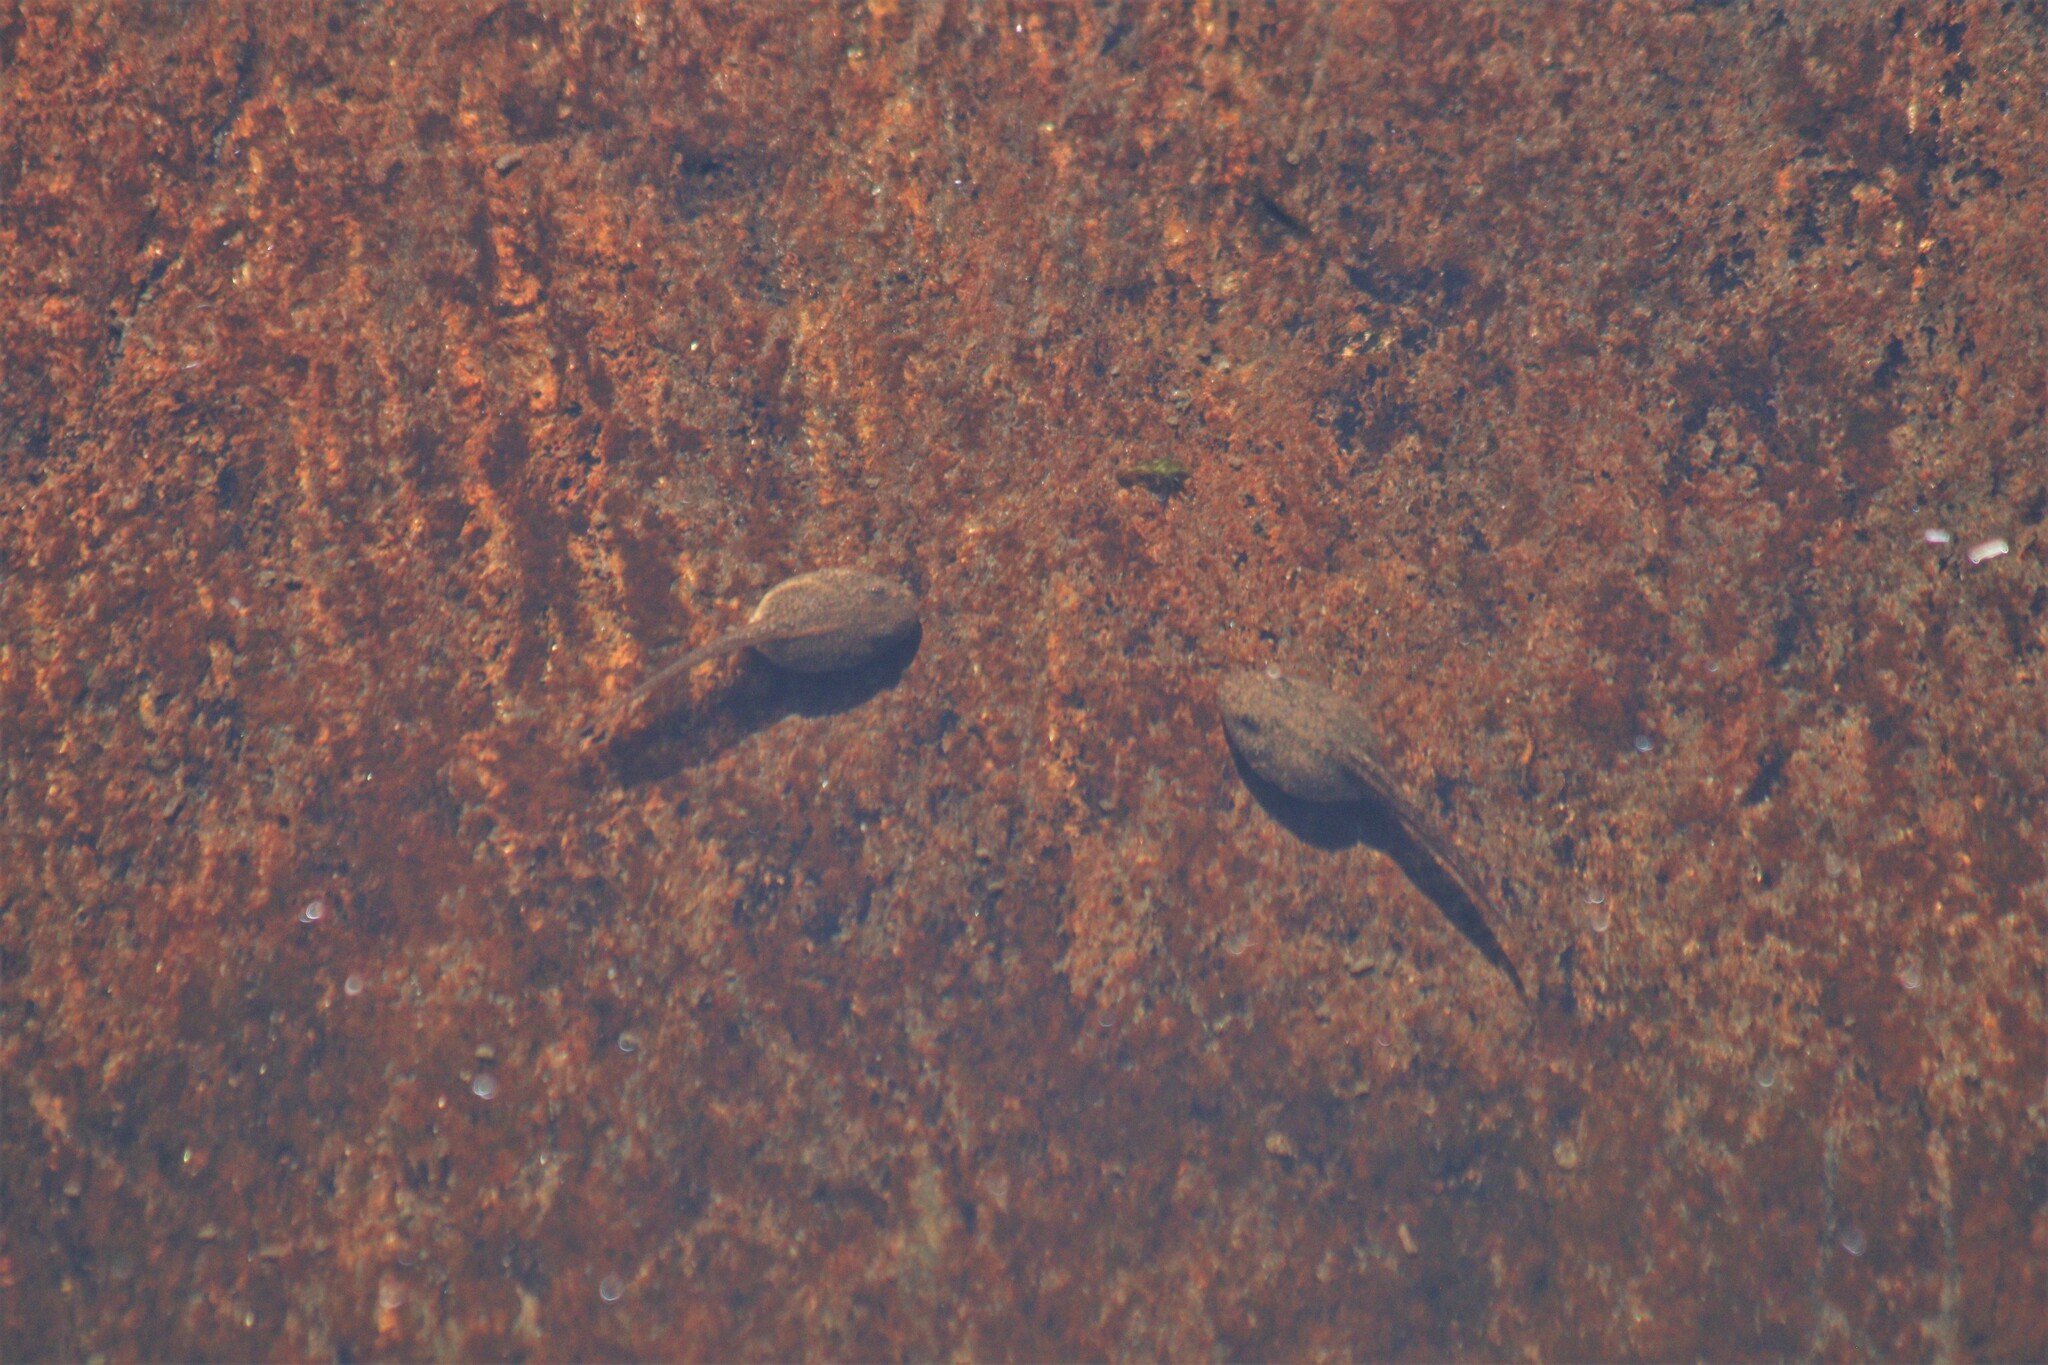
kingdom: Animalia
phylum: Chordata
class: Amphibia
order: Anura
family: Ranidae
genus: Rana
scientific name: Rana temporaria
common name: Common frog
